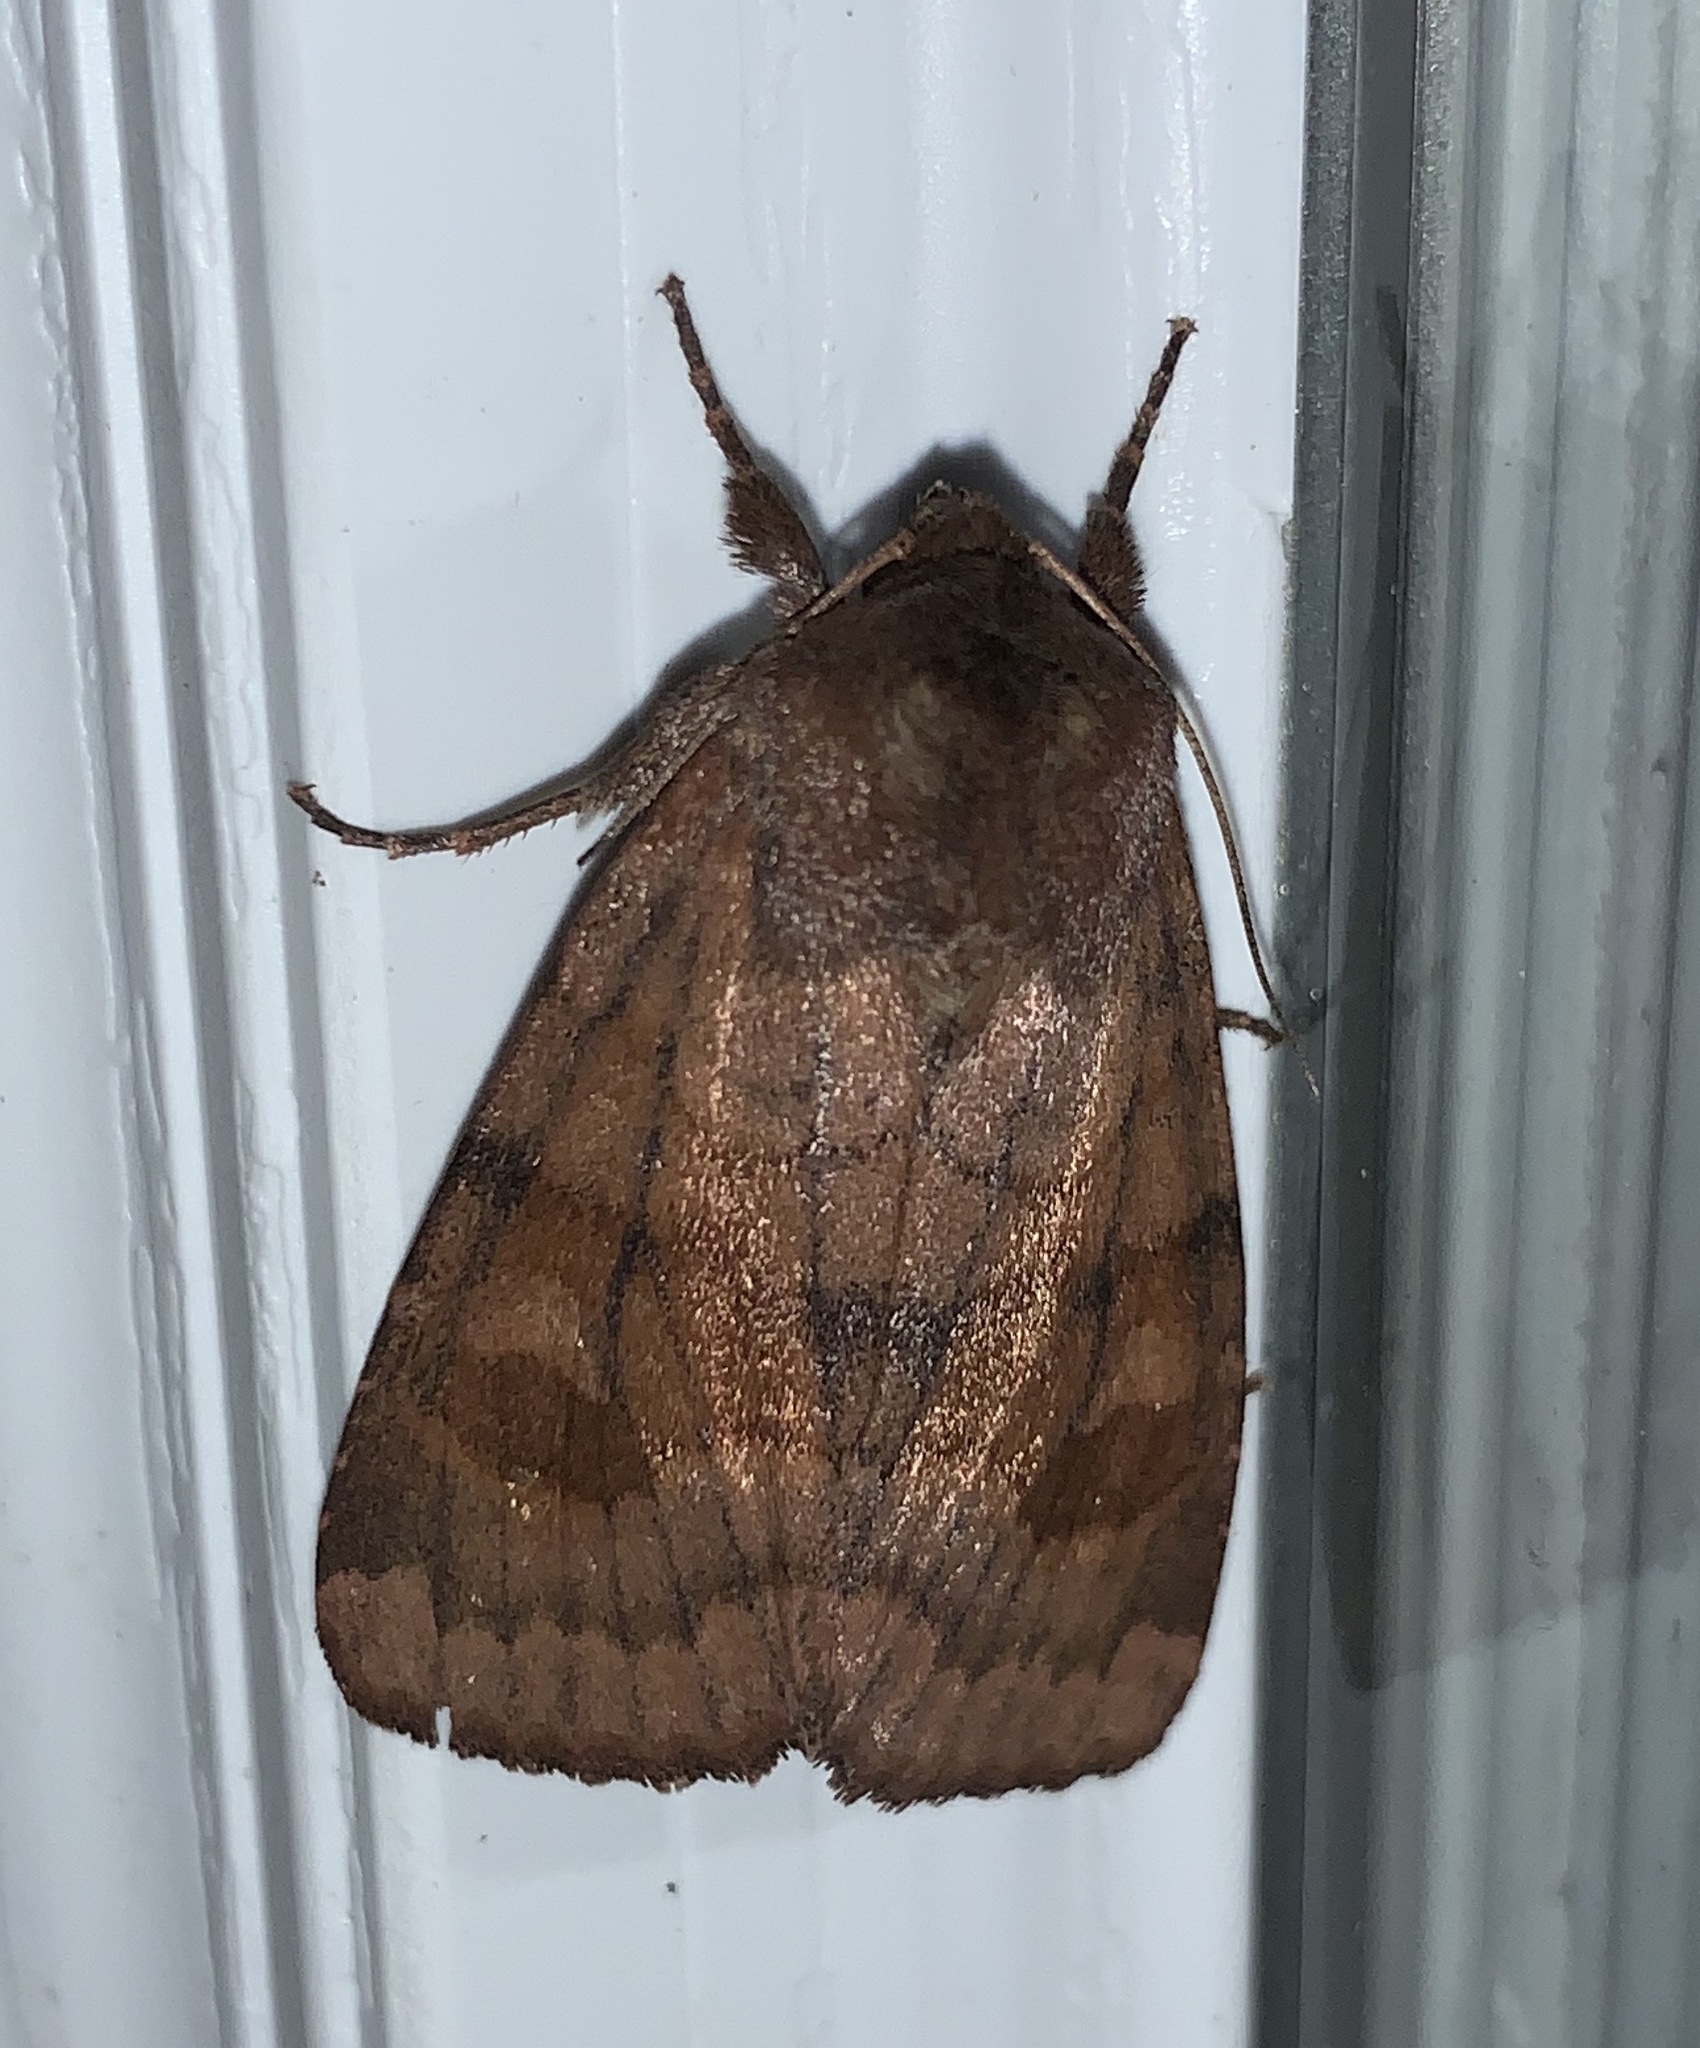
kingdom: Animalia
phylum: Arthropoda
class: Insecta
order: Lepidoptera
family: Noctuidae
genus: Nephelodes
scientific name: Nephelodes minians
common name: Bronzed cutworm
